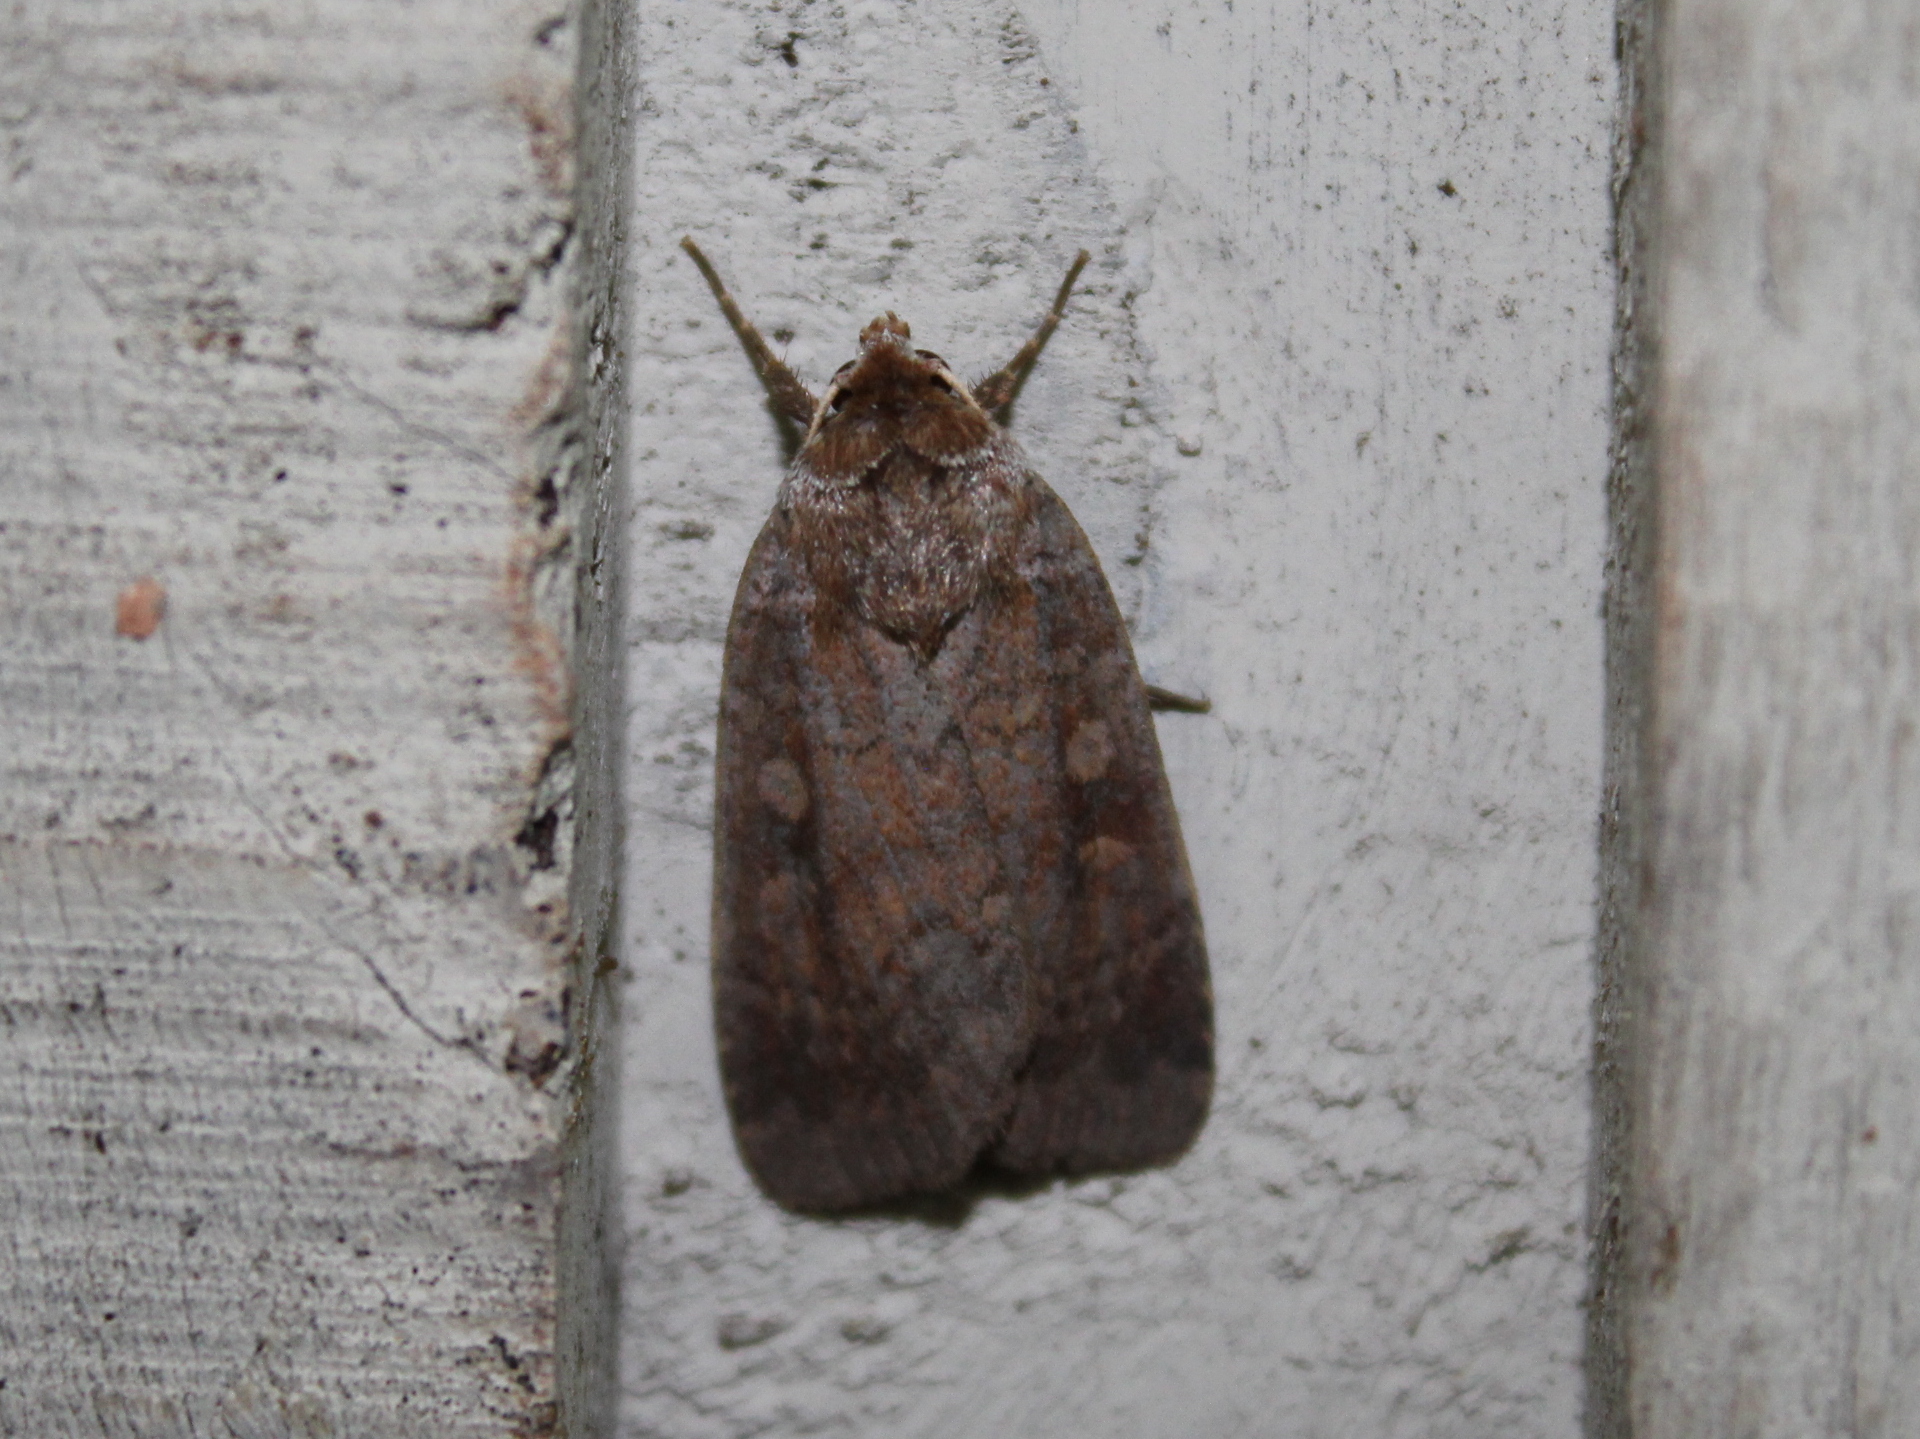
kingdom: Animalia
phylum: Arthropoda
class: Insecta
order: Lepidoptera
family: Noctuidae
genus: Eueretagrotis
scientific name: Eueretagrotis perattentus
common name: Two-spot dart moth
